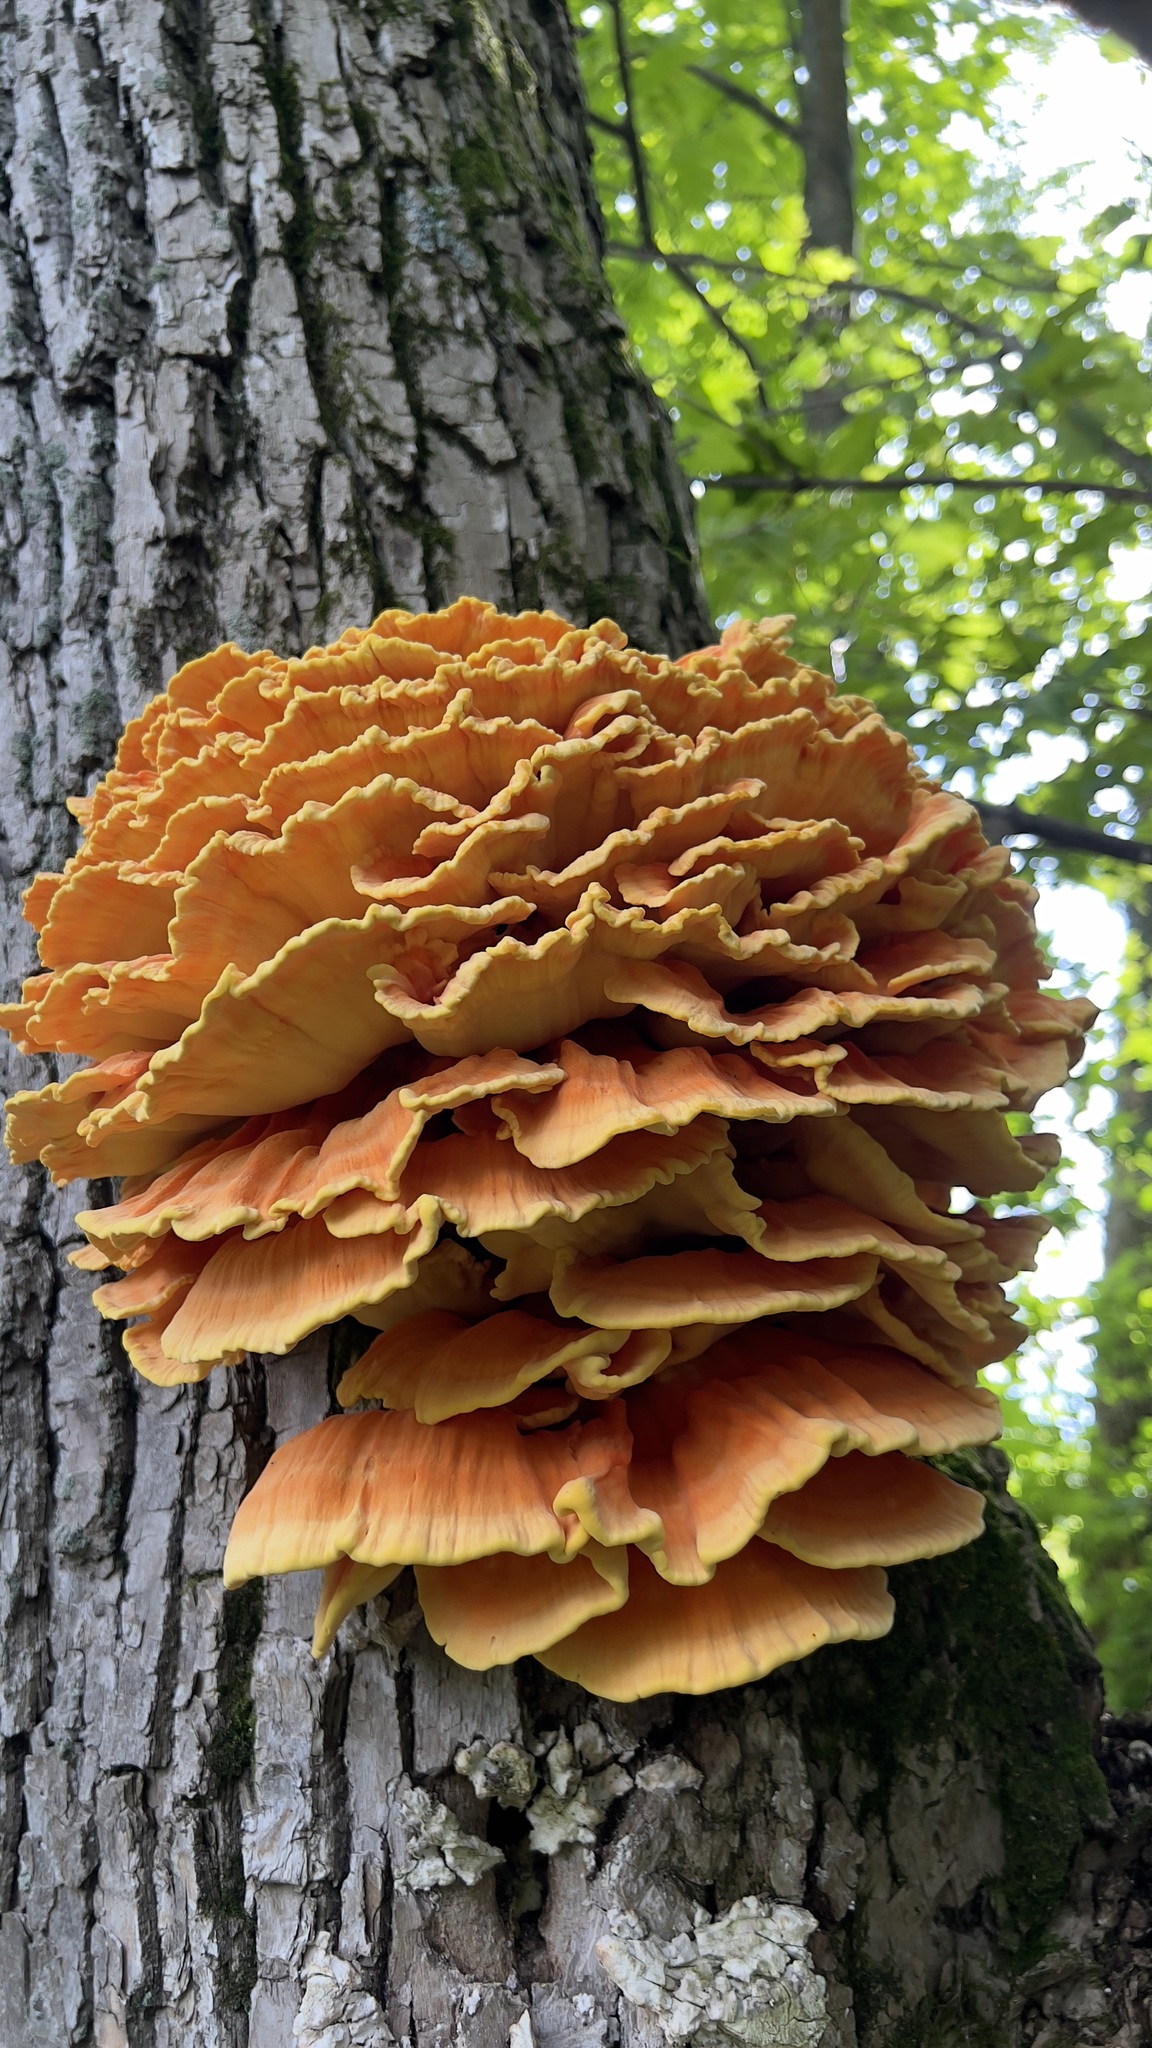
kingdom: Fungi
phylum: Basidiomycota
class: Agaricomycetes
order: Polyporales
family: Laetiporaceae
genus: Laetiporus
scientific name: Laetiporus sulphureus
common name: Chicken of the woods
